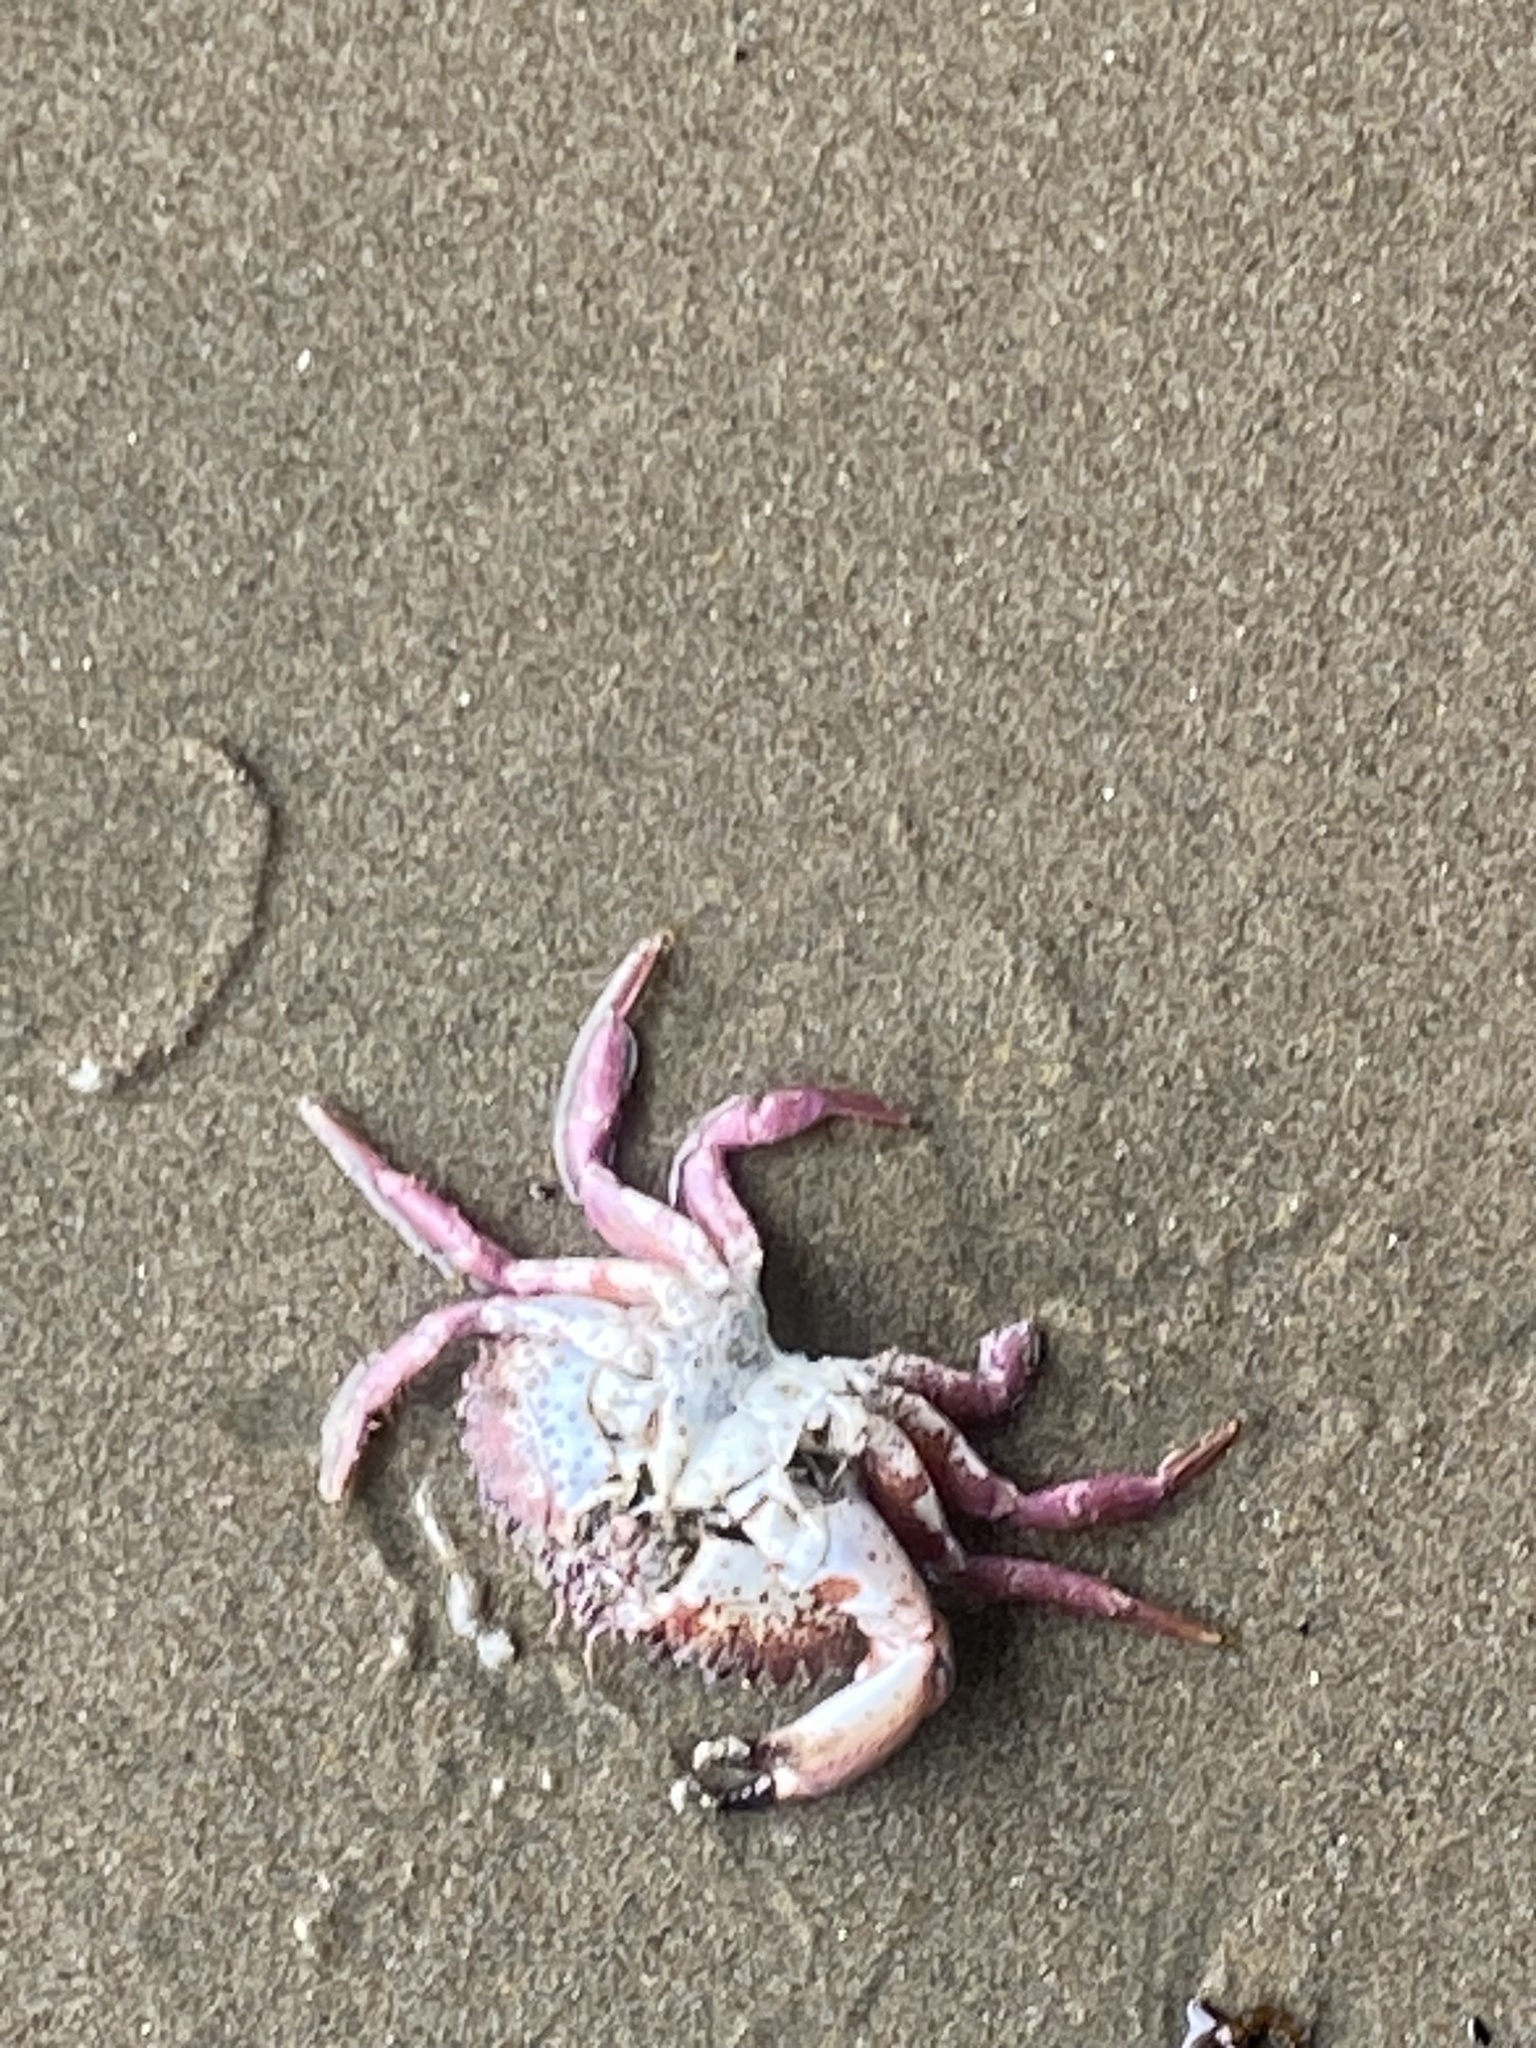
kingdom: Animalia
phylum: Arthropoda
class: Malacostraca
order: Decapoda
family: Cancridae
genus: Romaleon
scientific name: Romaleon antennarium
